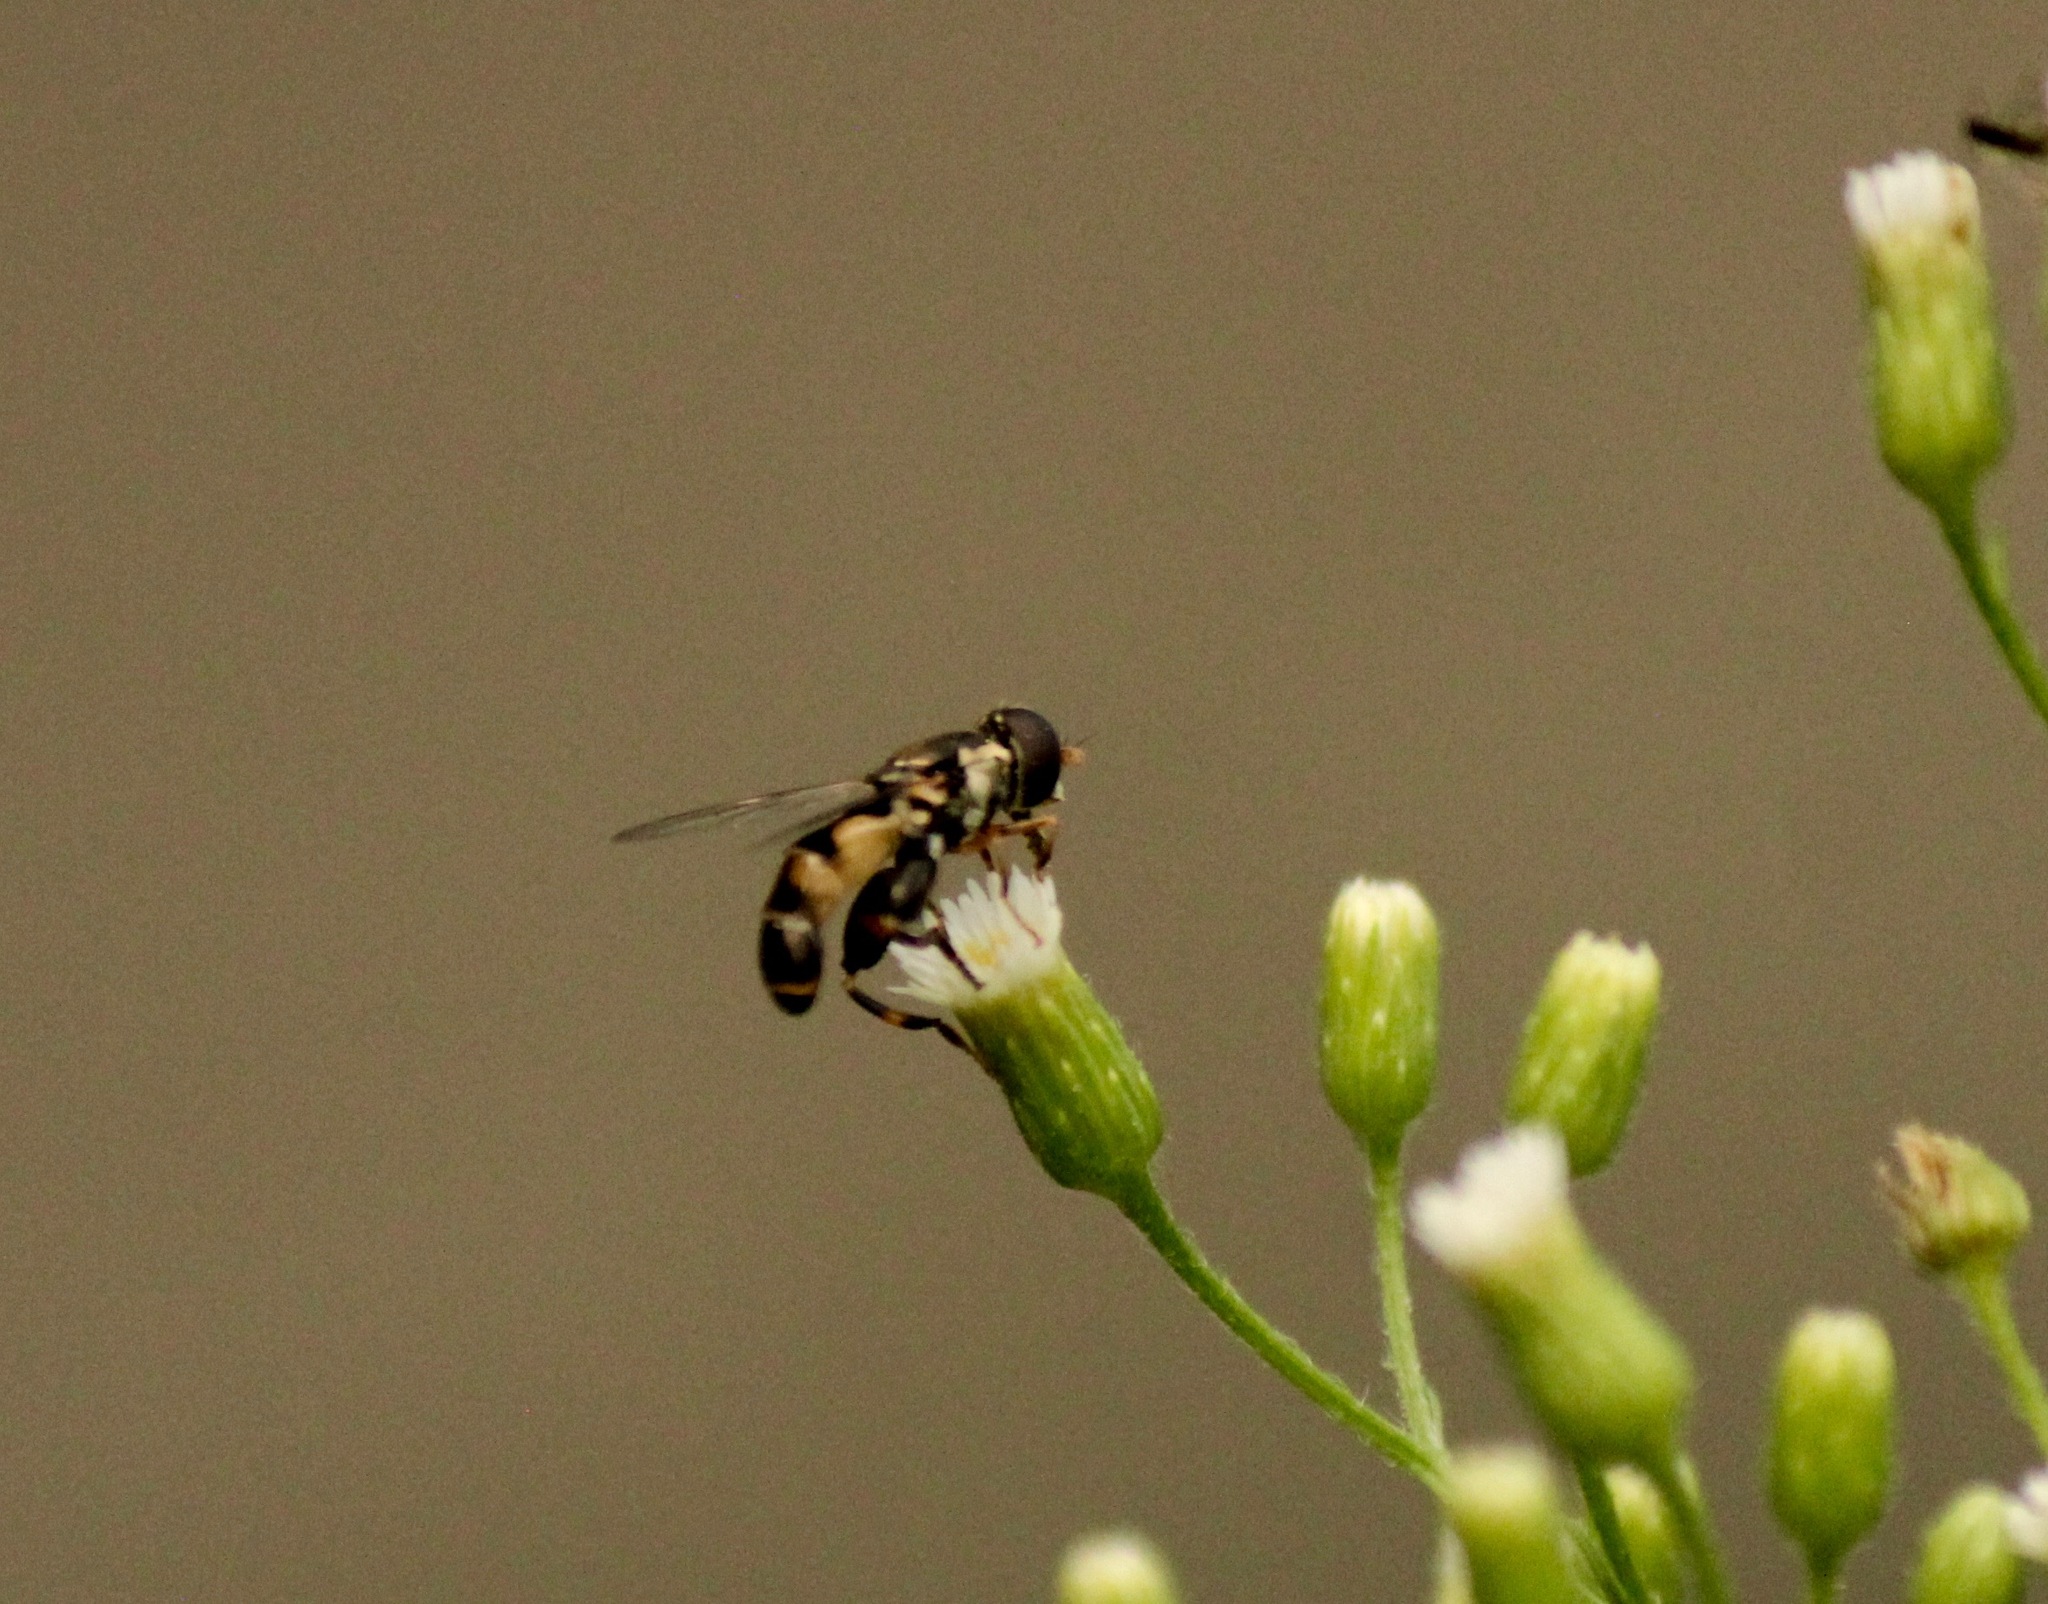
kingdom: Animalia
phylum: Arthropoda
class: Insecta
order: Diptera
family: Syrphidae
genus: Syritta
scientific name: Syritta pipiens
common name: Hover fly
